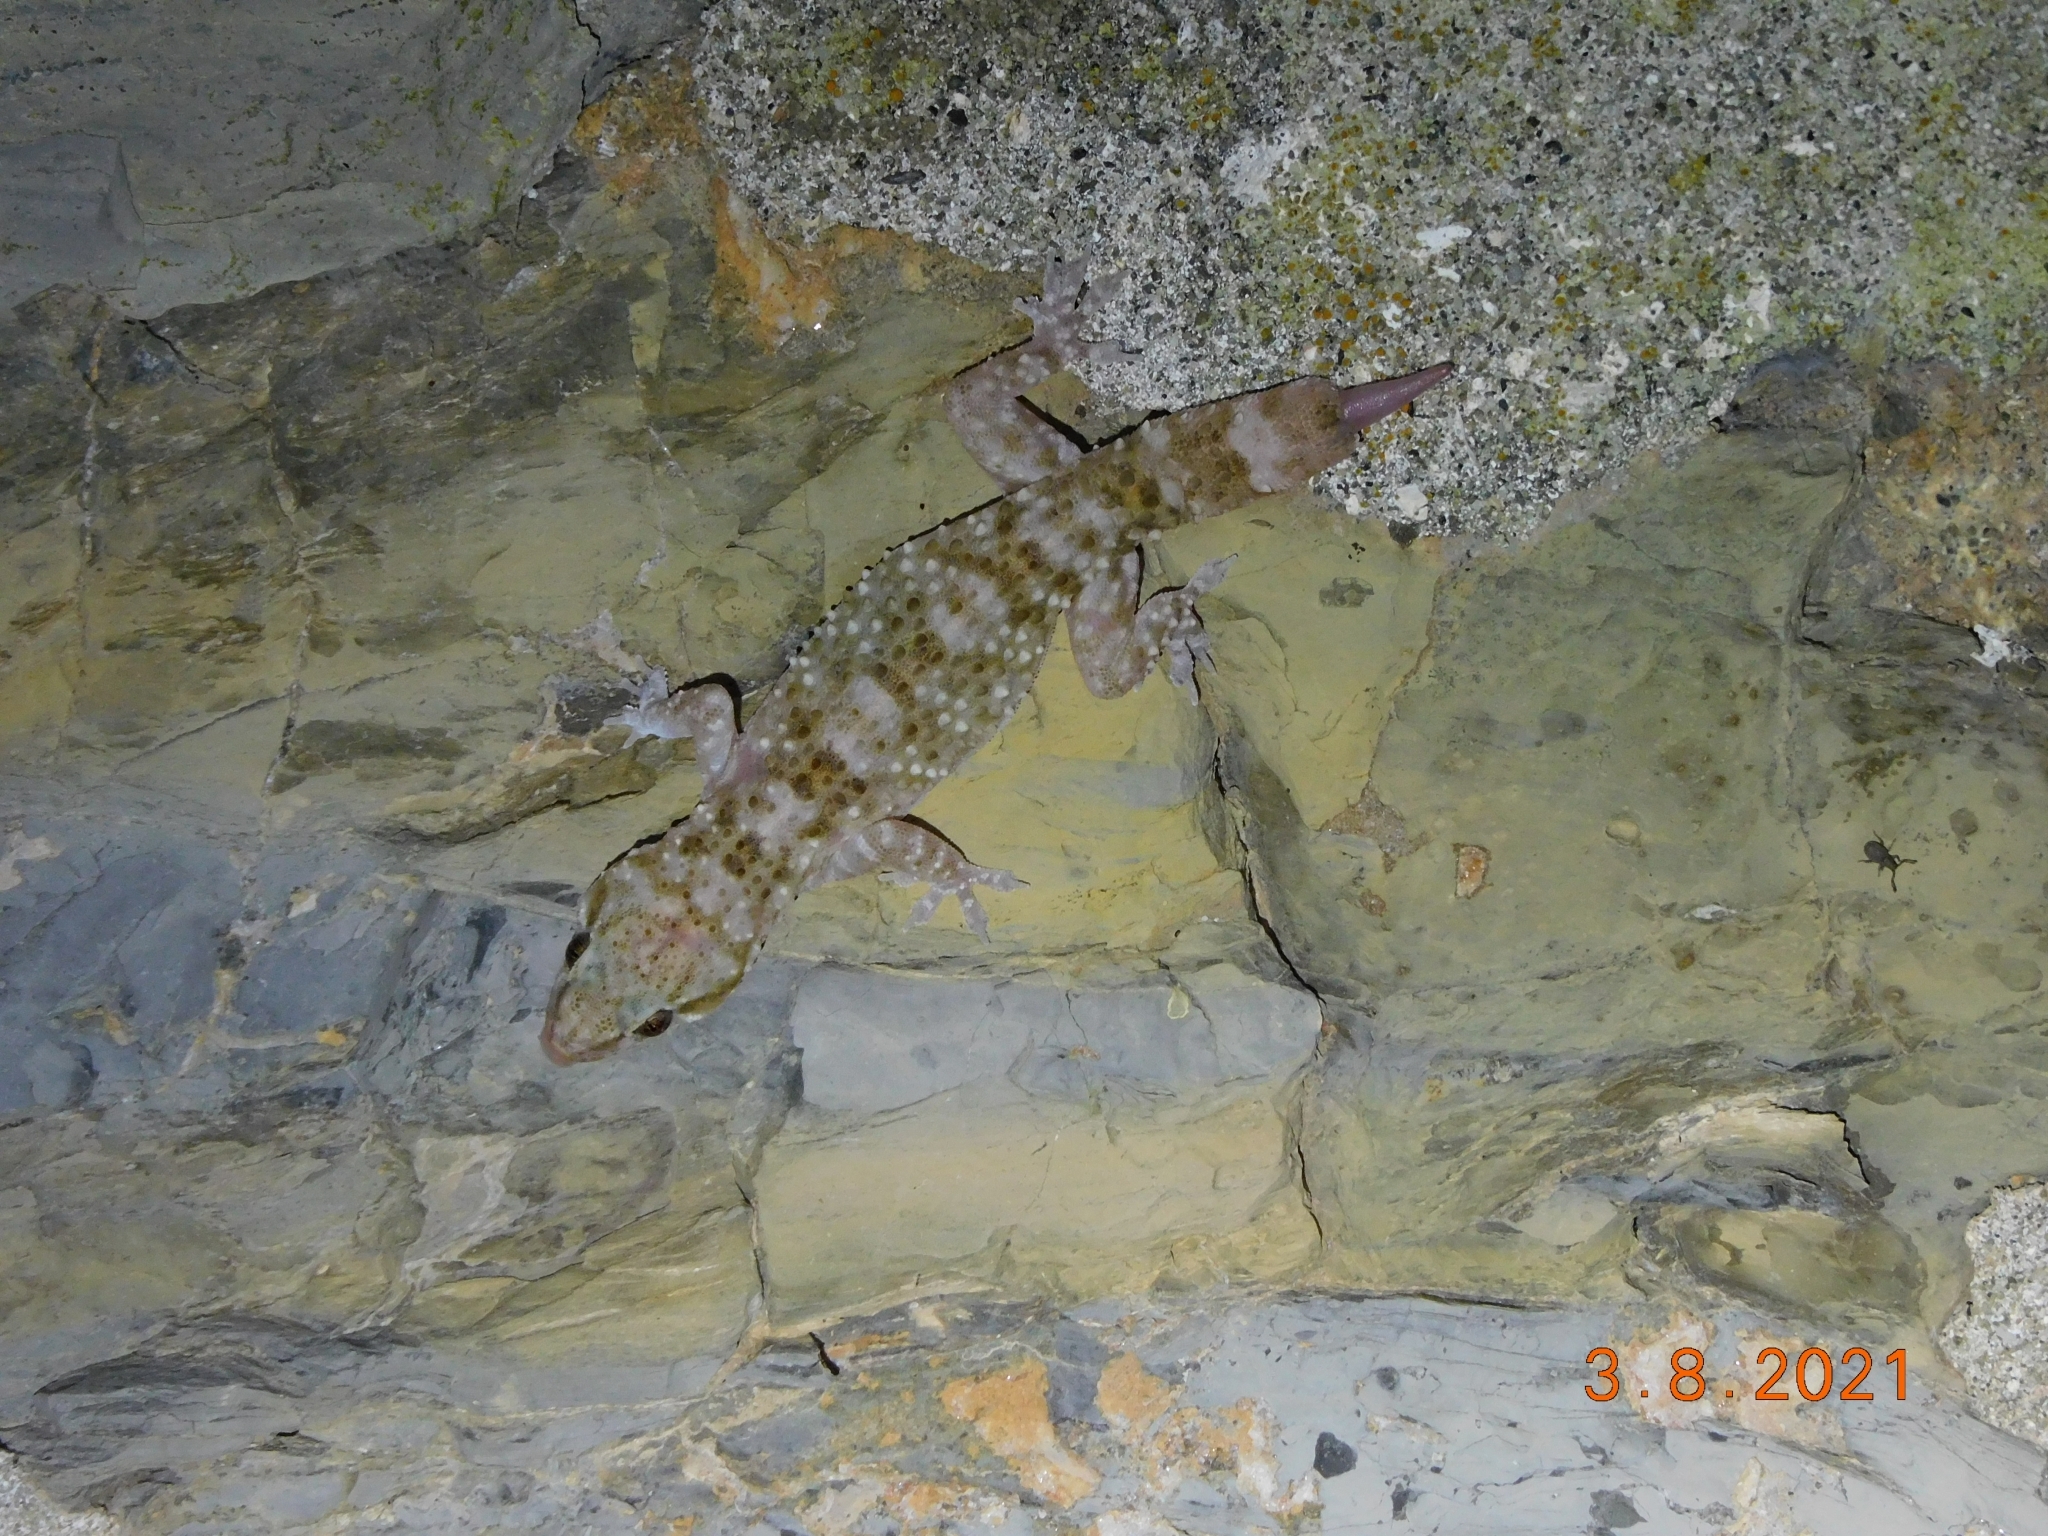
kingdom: Animalia
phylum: Chordata
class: Squamata
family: Gekkonidae
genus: Hemidactylus
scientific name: Hemidactylus turcicus
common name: Turkish gecko
